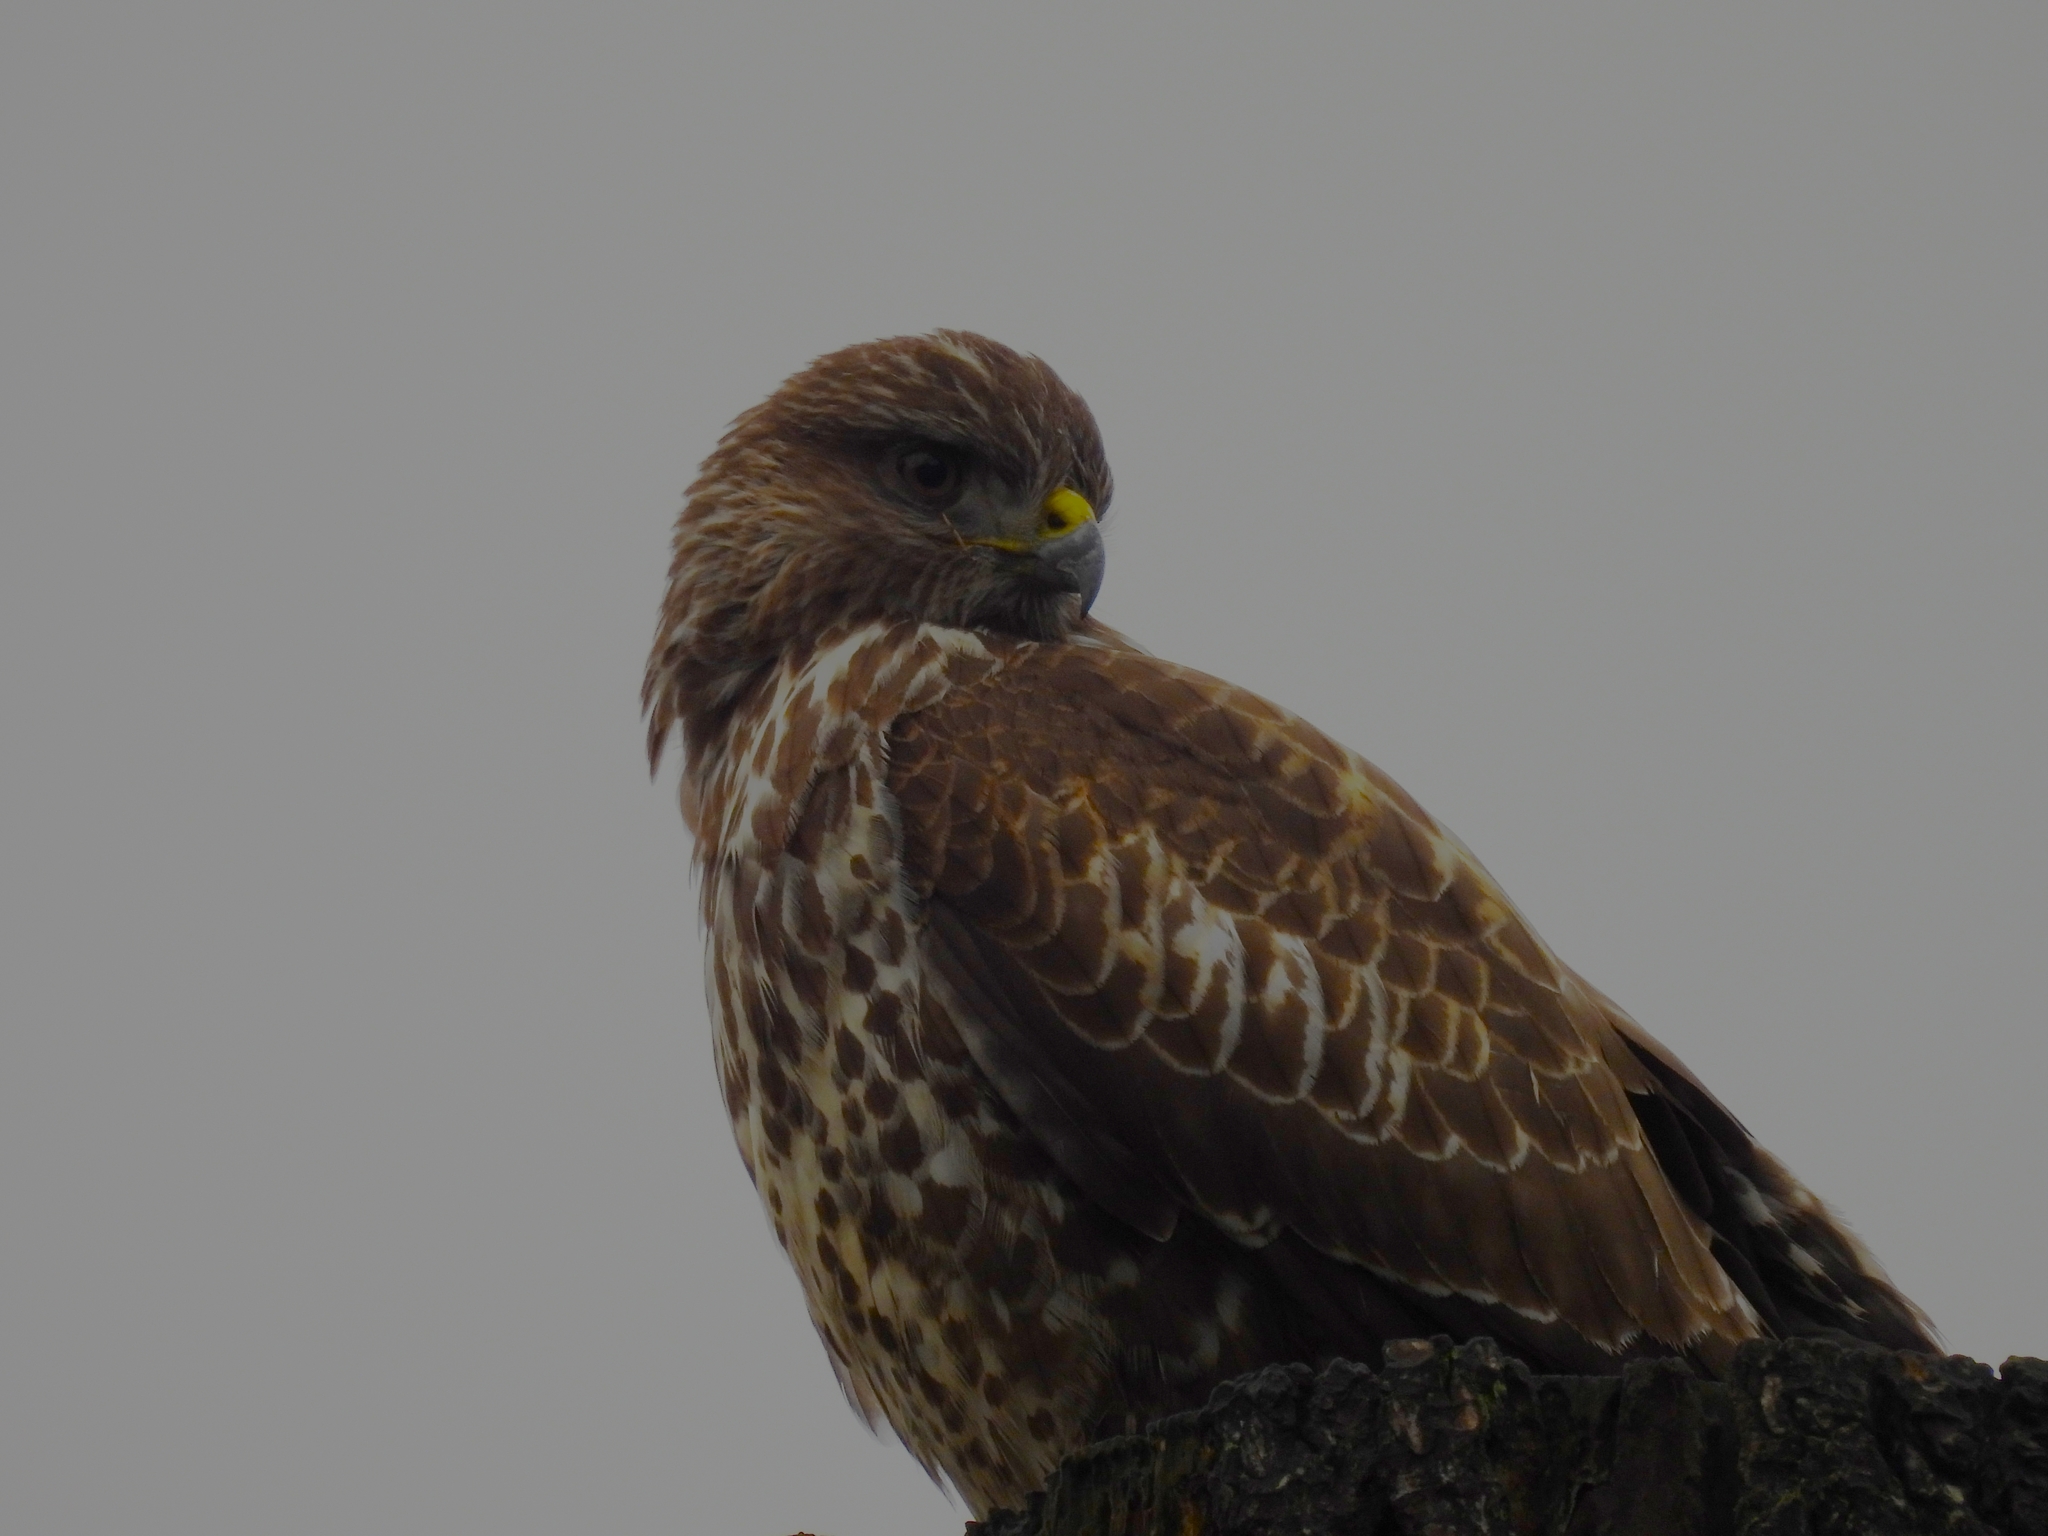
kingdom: Animalia
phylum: Chordata
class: Aves
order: Accipitriformes
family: Accipitridae
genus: Buteo
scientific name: Buteo buteo
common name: Common buzzard
